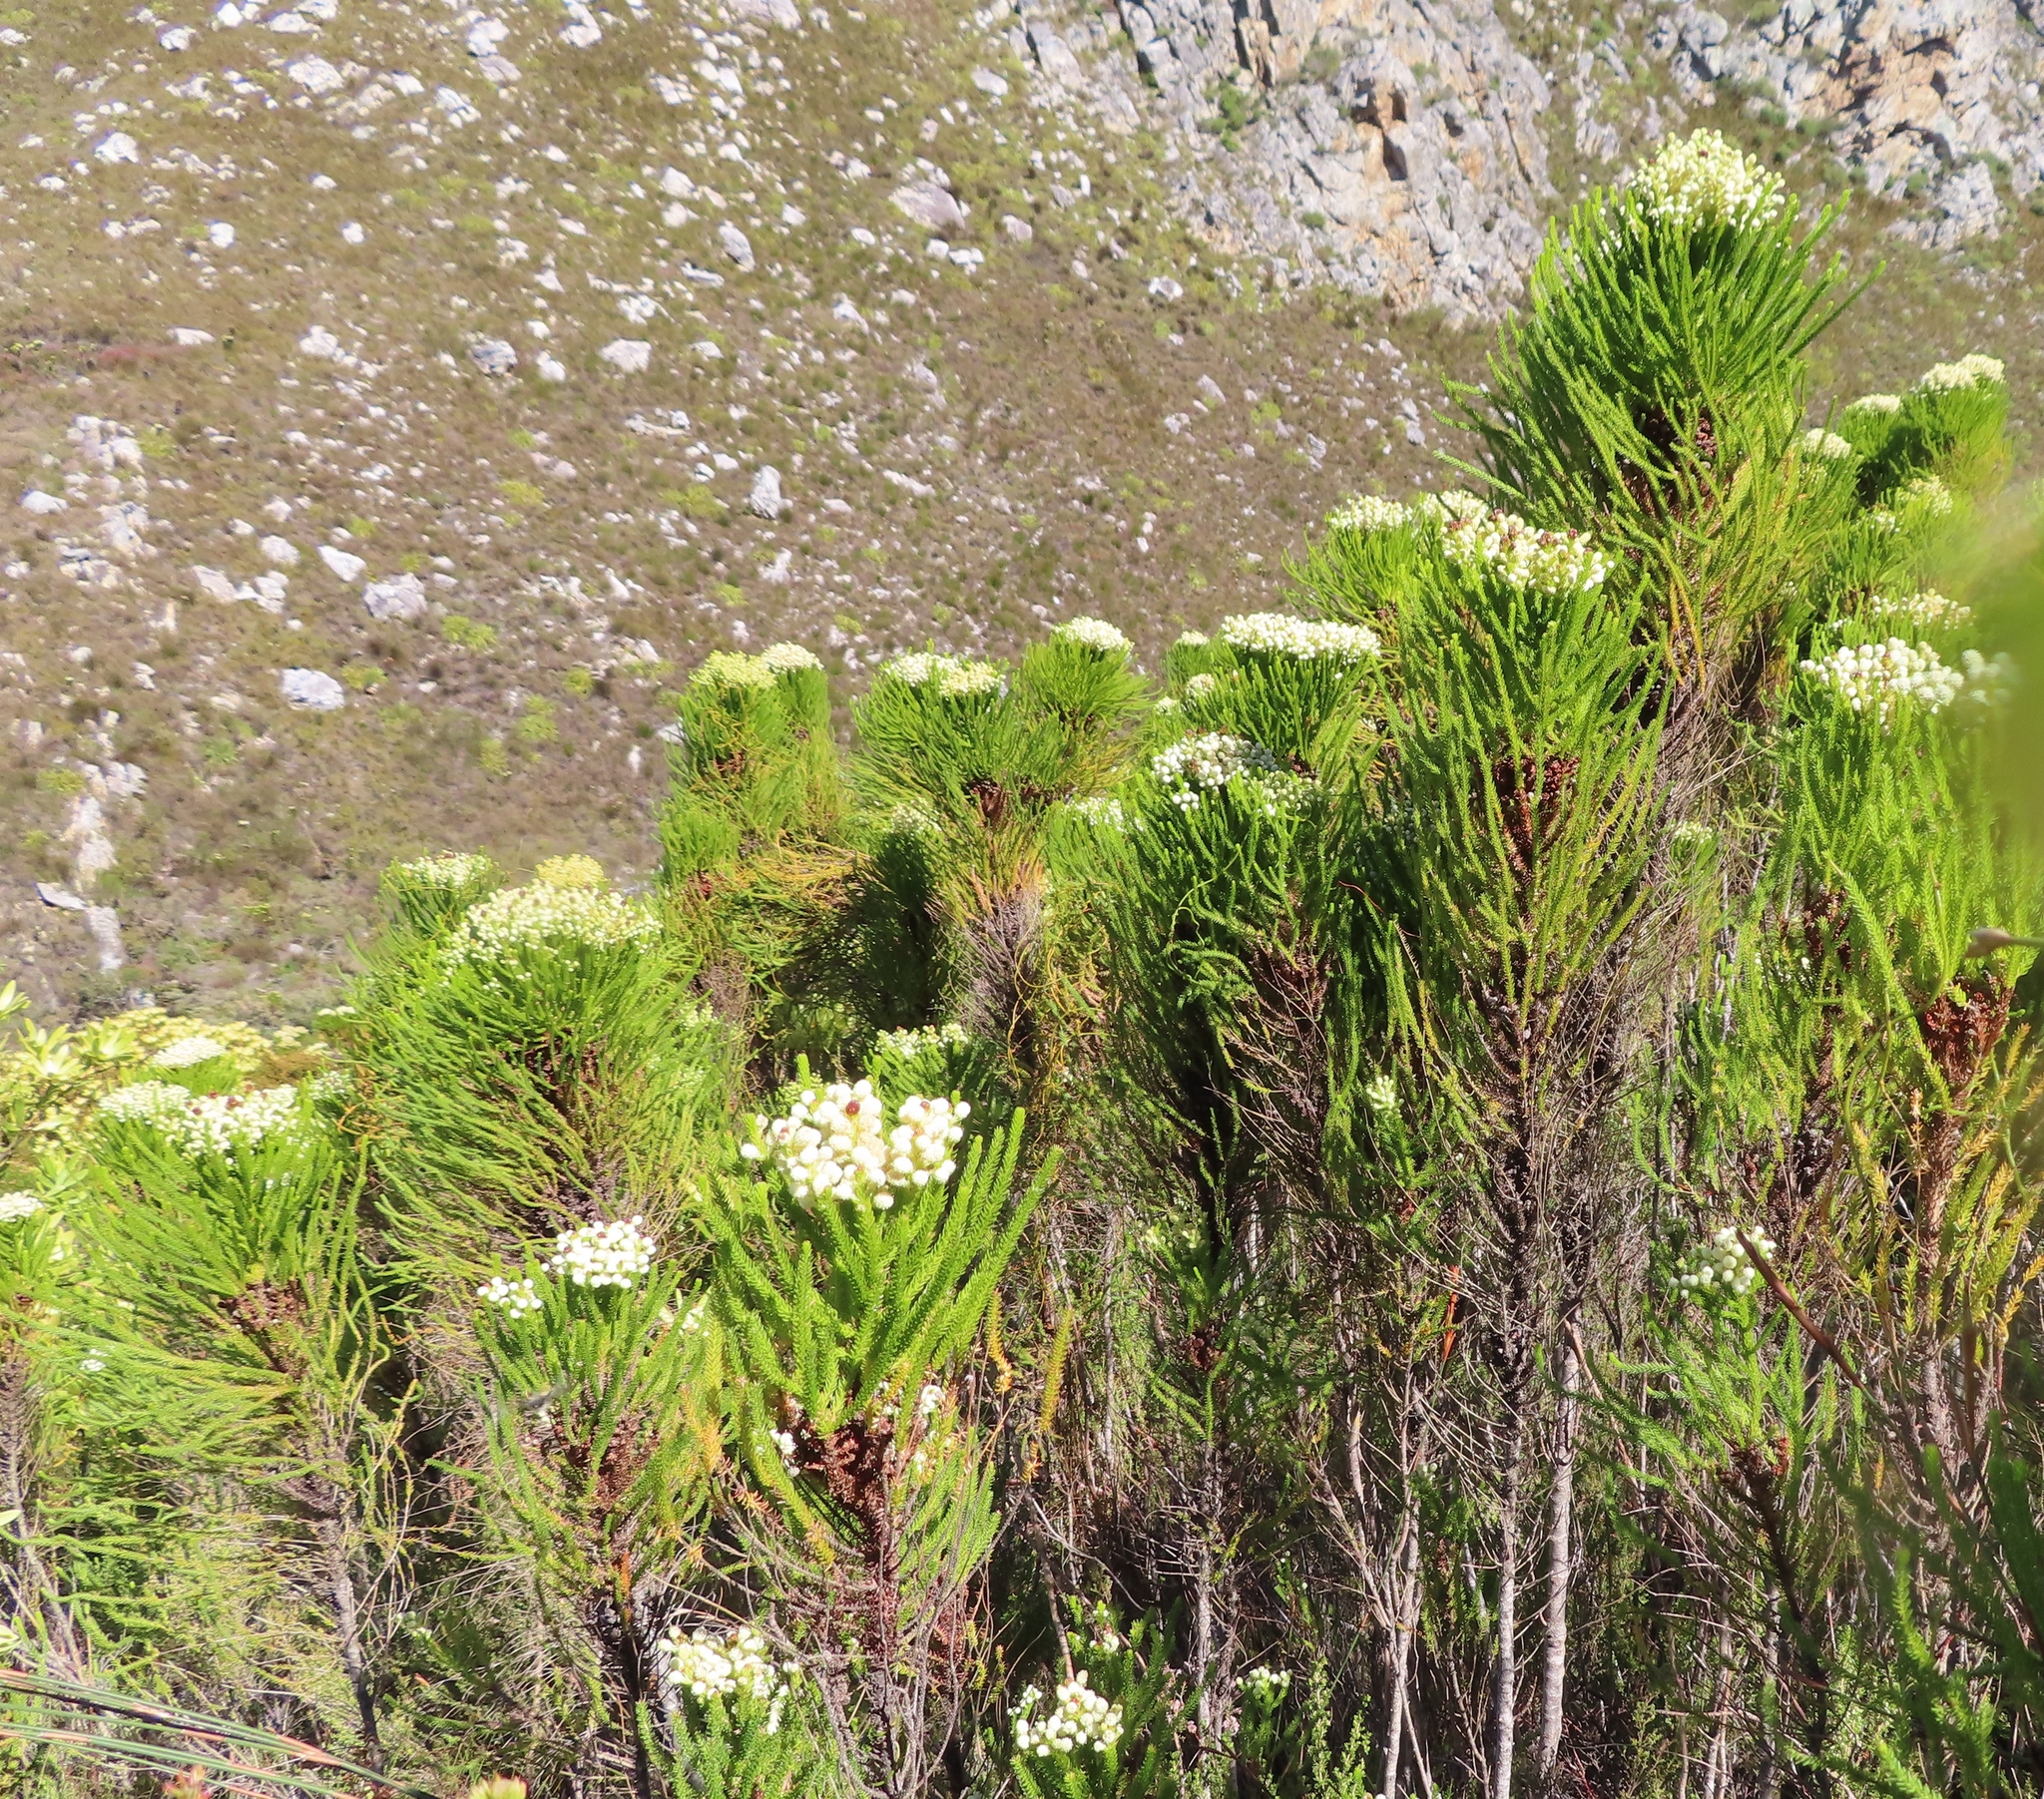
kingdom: Plantae
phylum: Tracheophyta
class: Magnoliopsida
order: Bruniales
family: Bruniaceae
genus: Berzelia
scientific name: Berzelia lanuginosa
